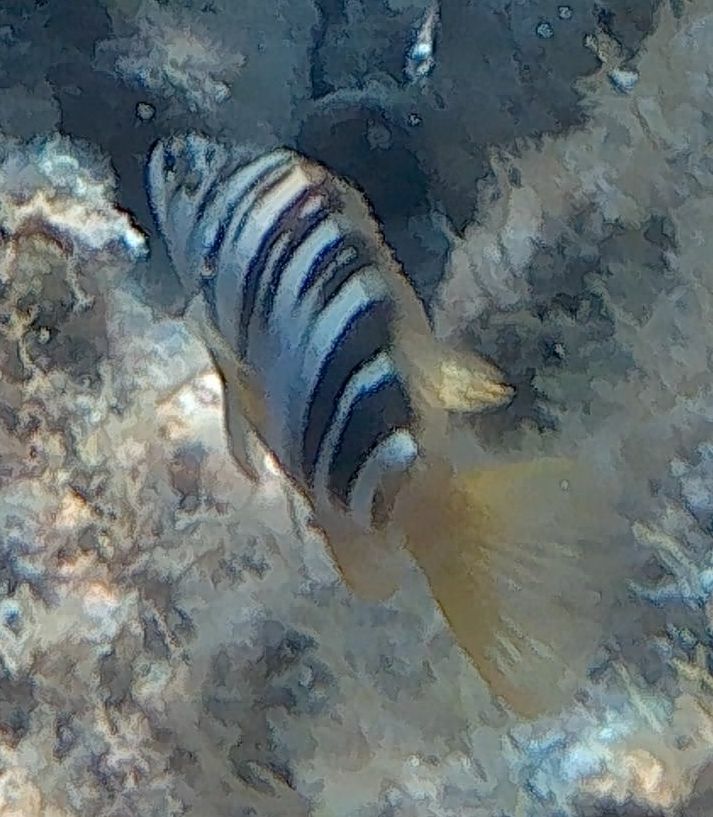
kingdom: Animalia
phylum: Chordata
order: Perciformes
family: Serranidae
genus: Serranus
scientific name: Serranus scriba
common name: Painted comber
